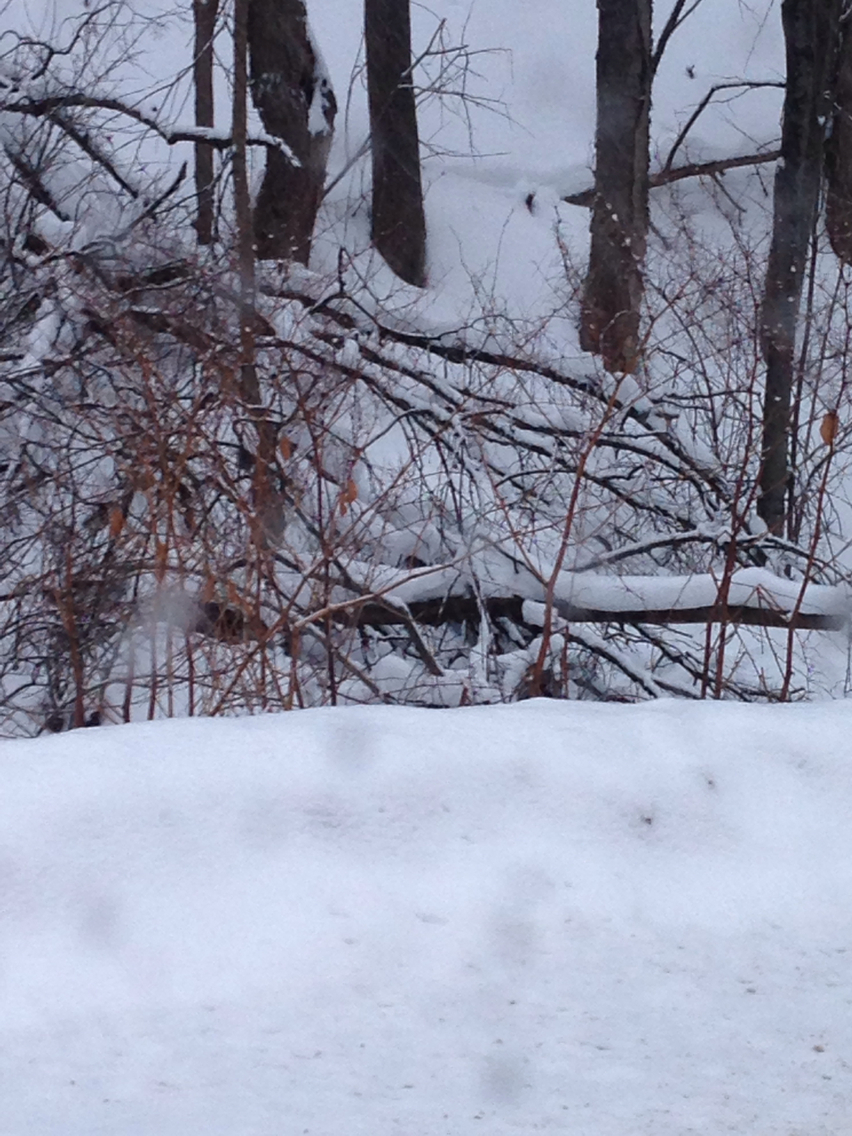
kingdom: Plantae
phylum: Tracheophyta
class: Magnoliopsida
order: Caryophyllales
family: Polygonaceae
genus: Reynoutria
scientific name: Reynoutria japonica
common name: Japanese knotweed
